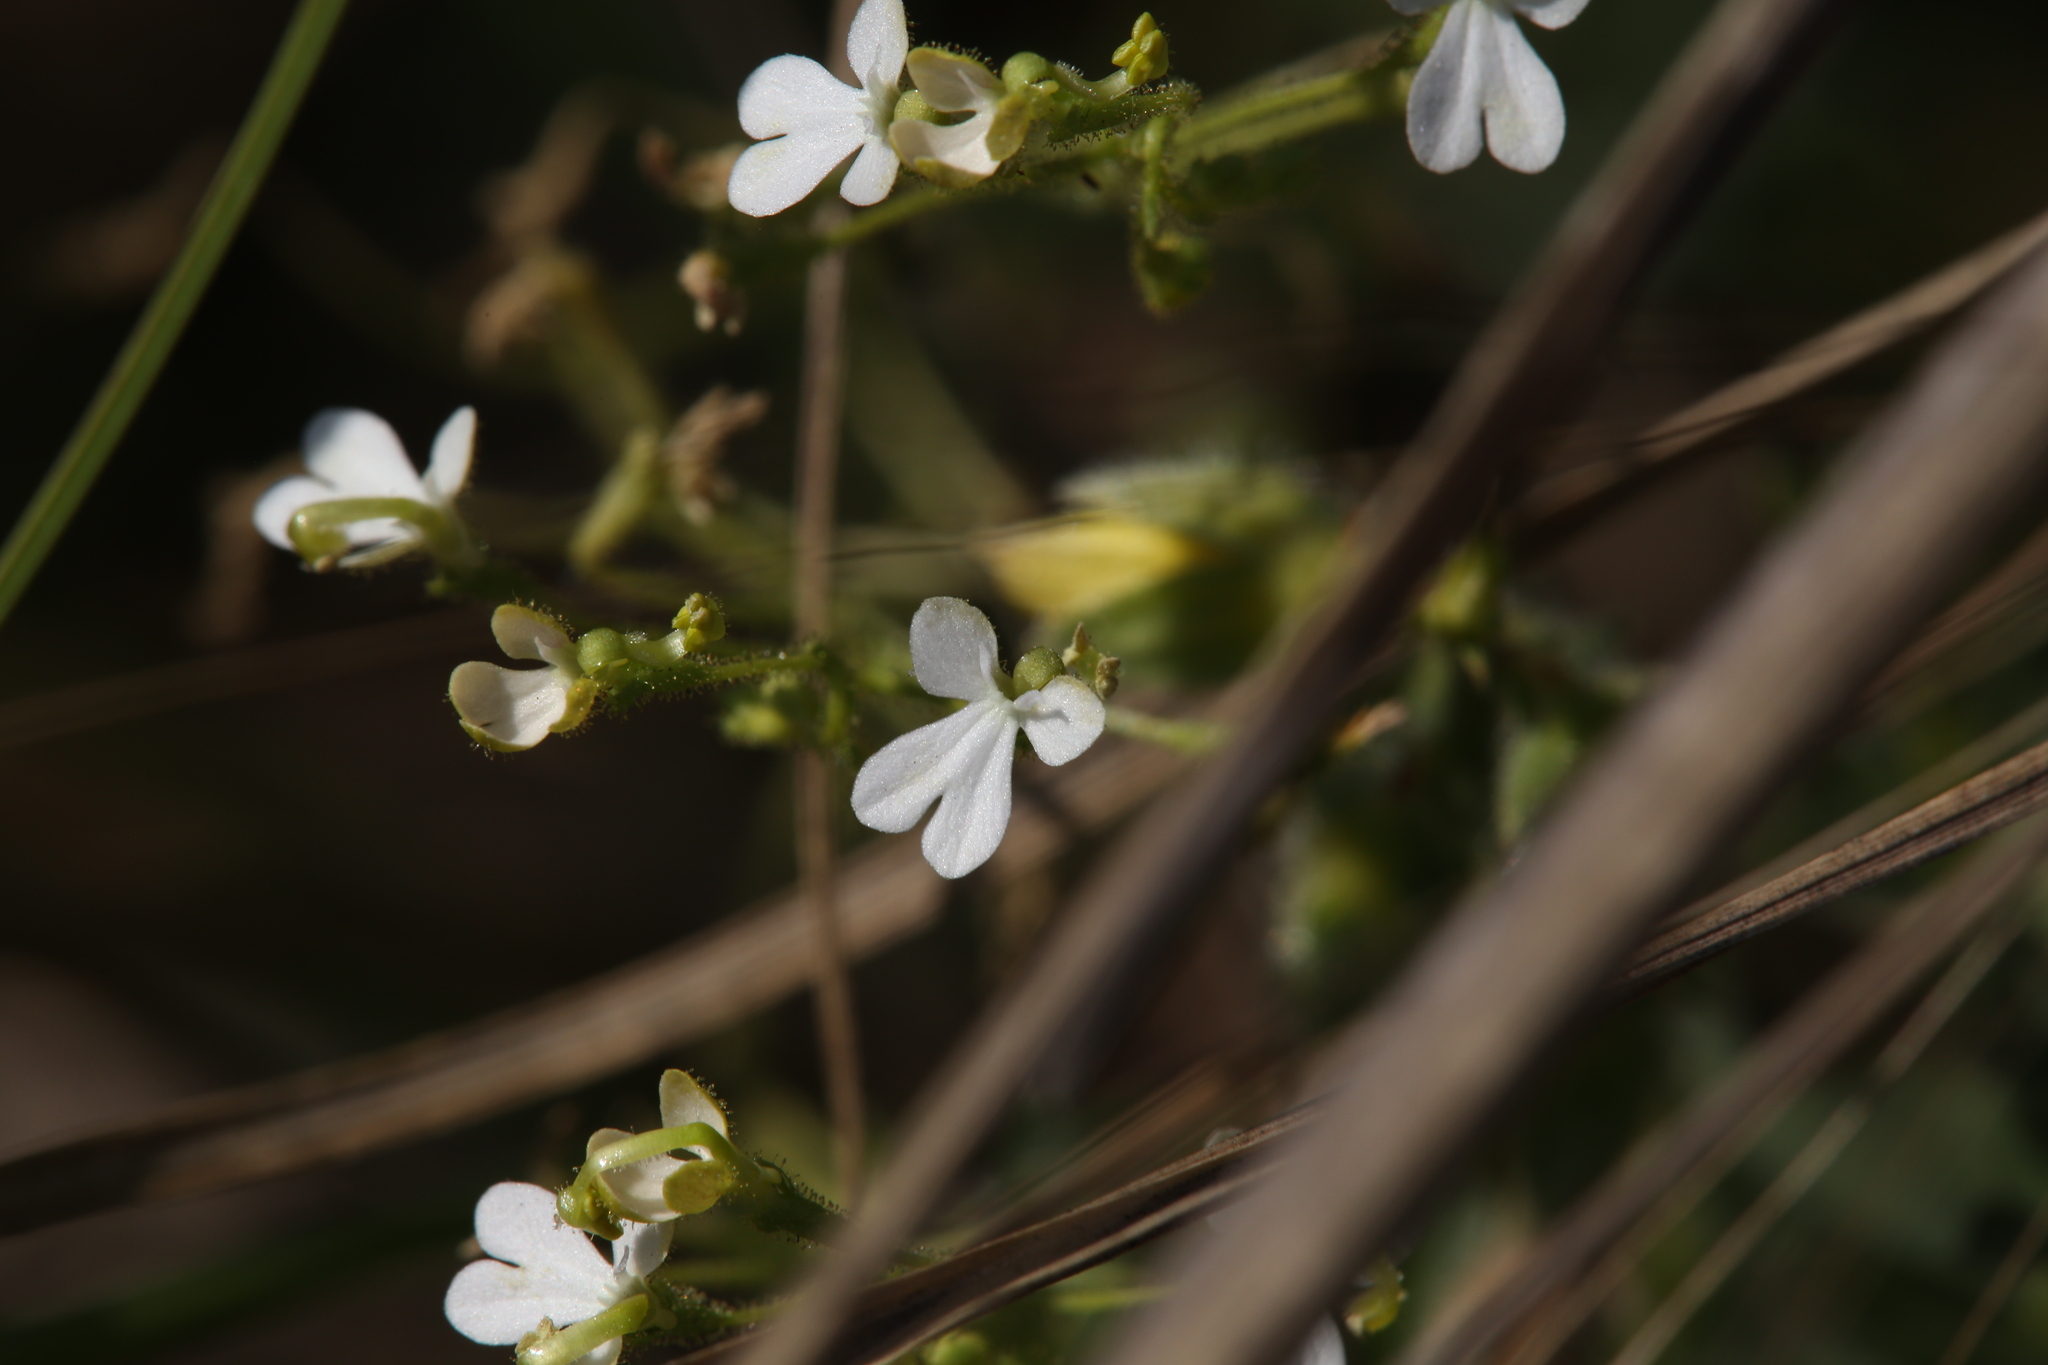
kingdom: Plantae
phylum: Tracheophyta
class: Magnoliopsida
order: Asterales
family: Stylidiaceae
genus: Stylidium
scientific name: Stylidium pindanicum
